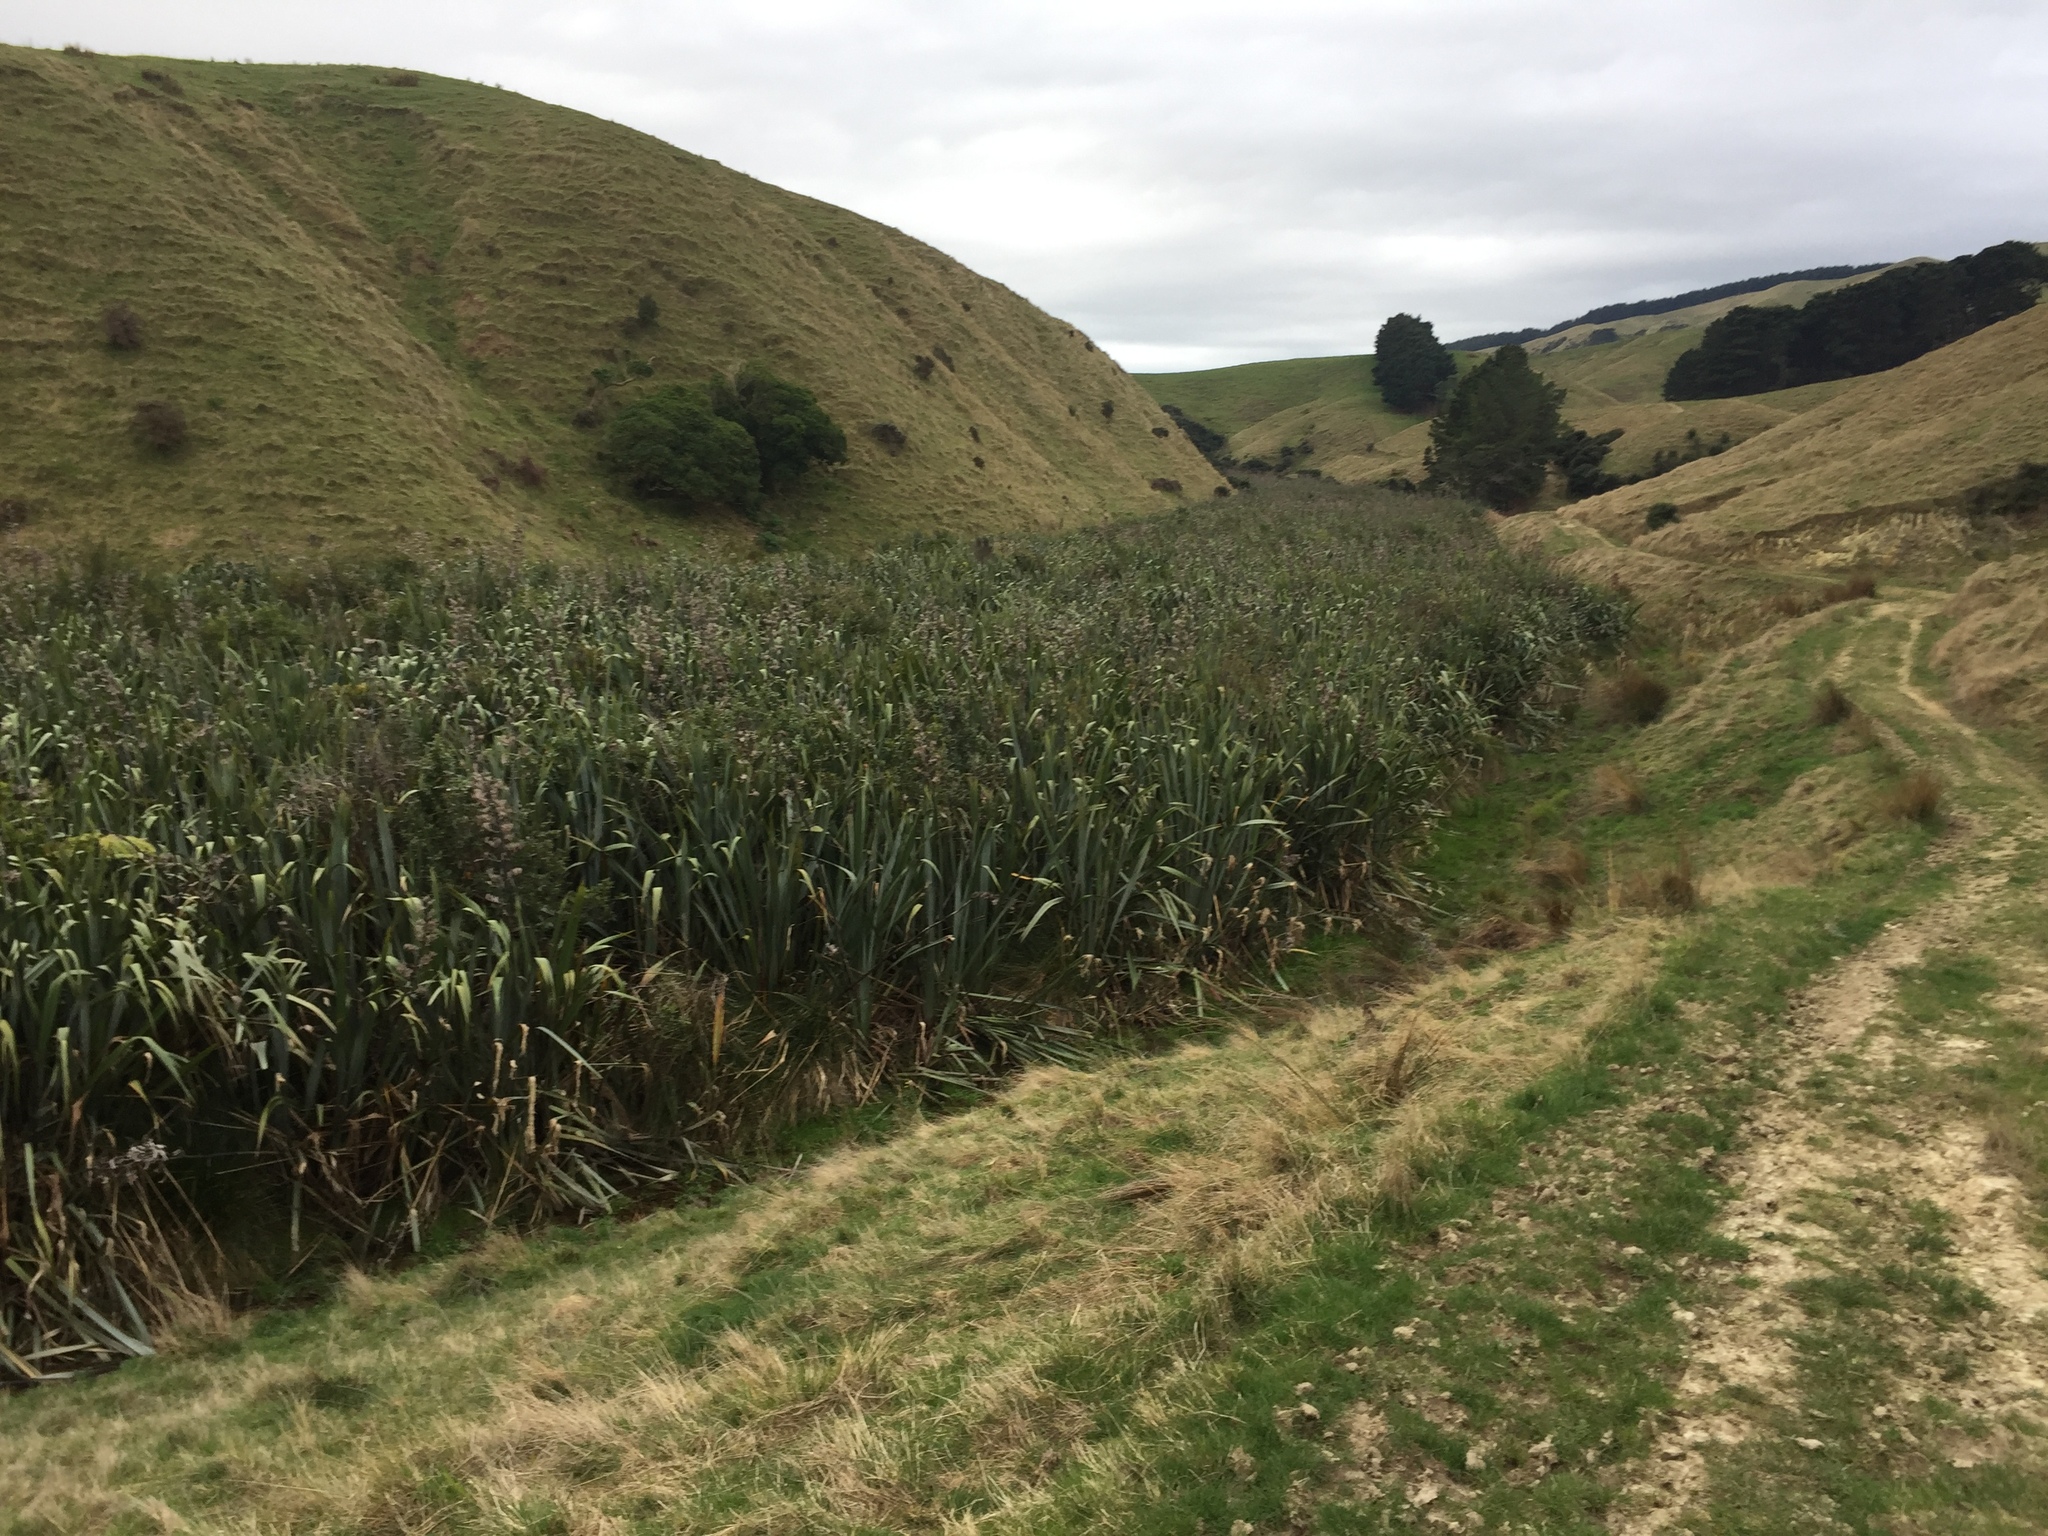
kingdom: Plantae
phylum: Tracheophyta
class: Liliopsida
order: Asparagales
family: Asphodelaceae
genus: Phormium
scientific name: Phormium tenax
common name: New zealand flax
